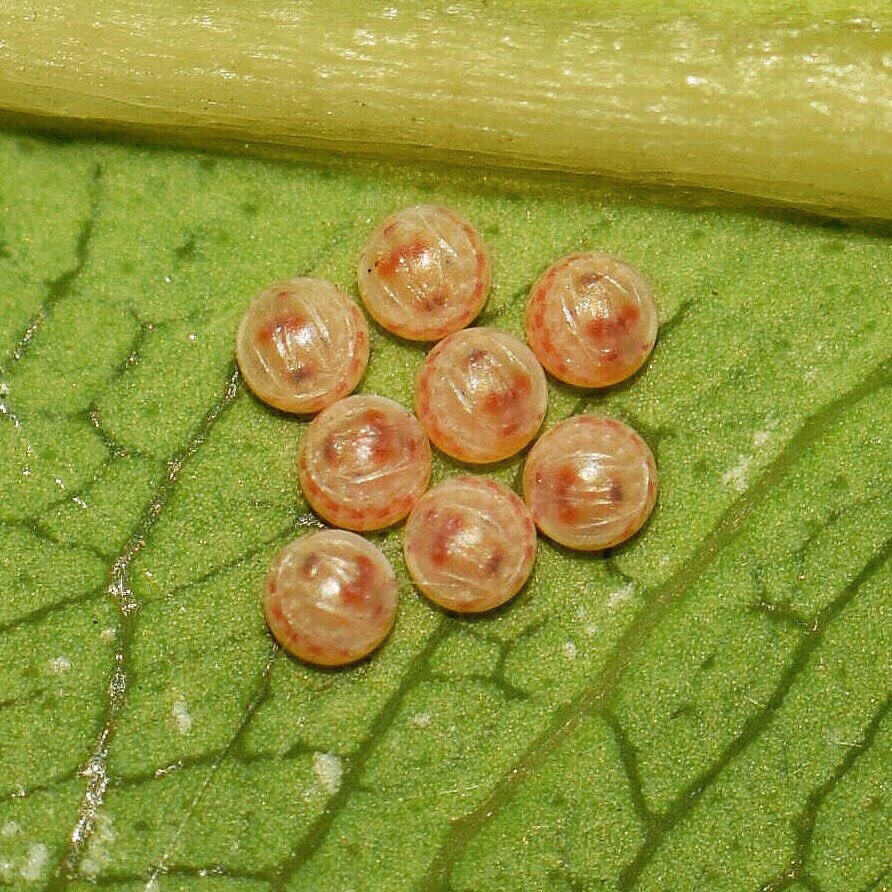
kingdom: Animalia
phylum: Arthropoda
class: Insecta
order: Lepidoptera
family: Notodontidae
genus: Desmeocraera
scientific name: Desmeocraera interpellatrix
